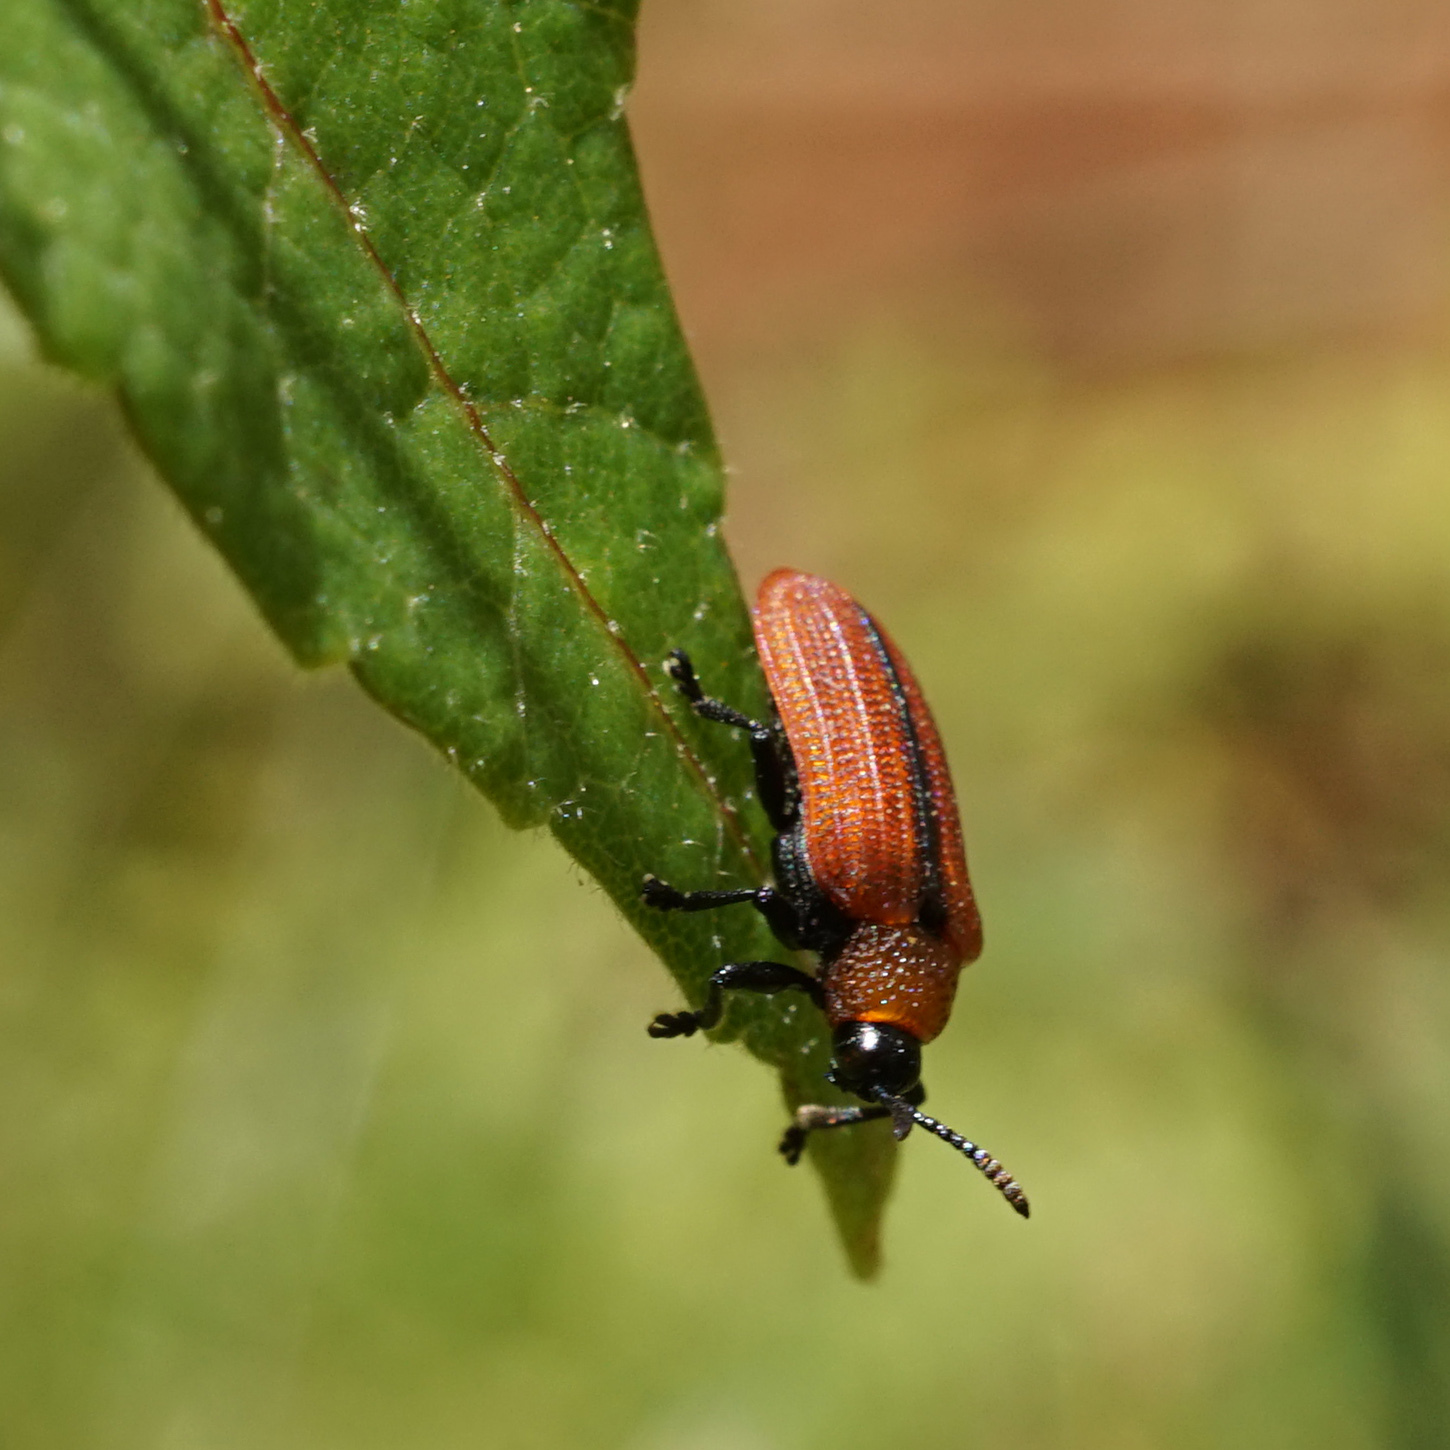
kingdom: Animalia
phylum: Arthropoda
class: Insecta
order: Coleoptera
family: Chrysomelidae
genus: Odontota
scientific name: Odontota horni
